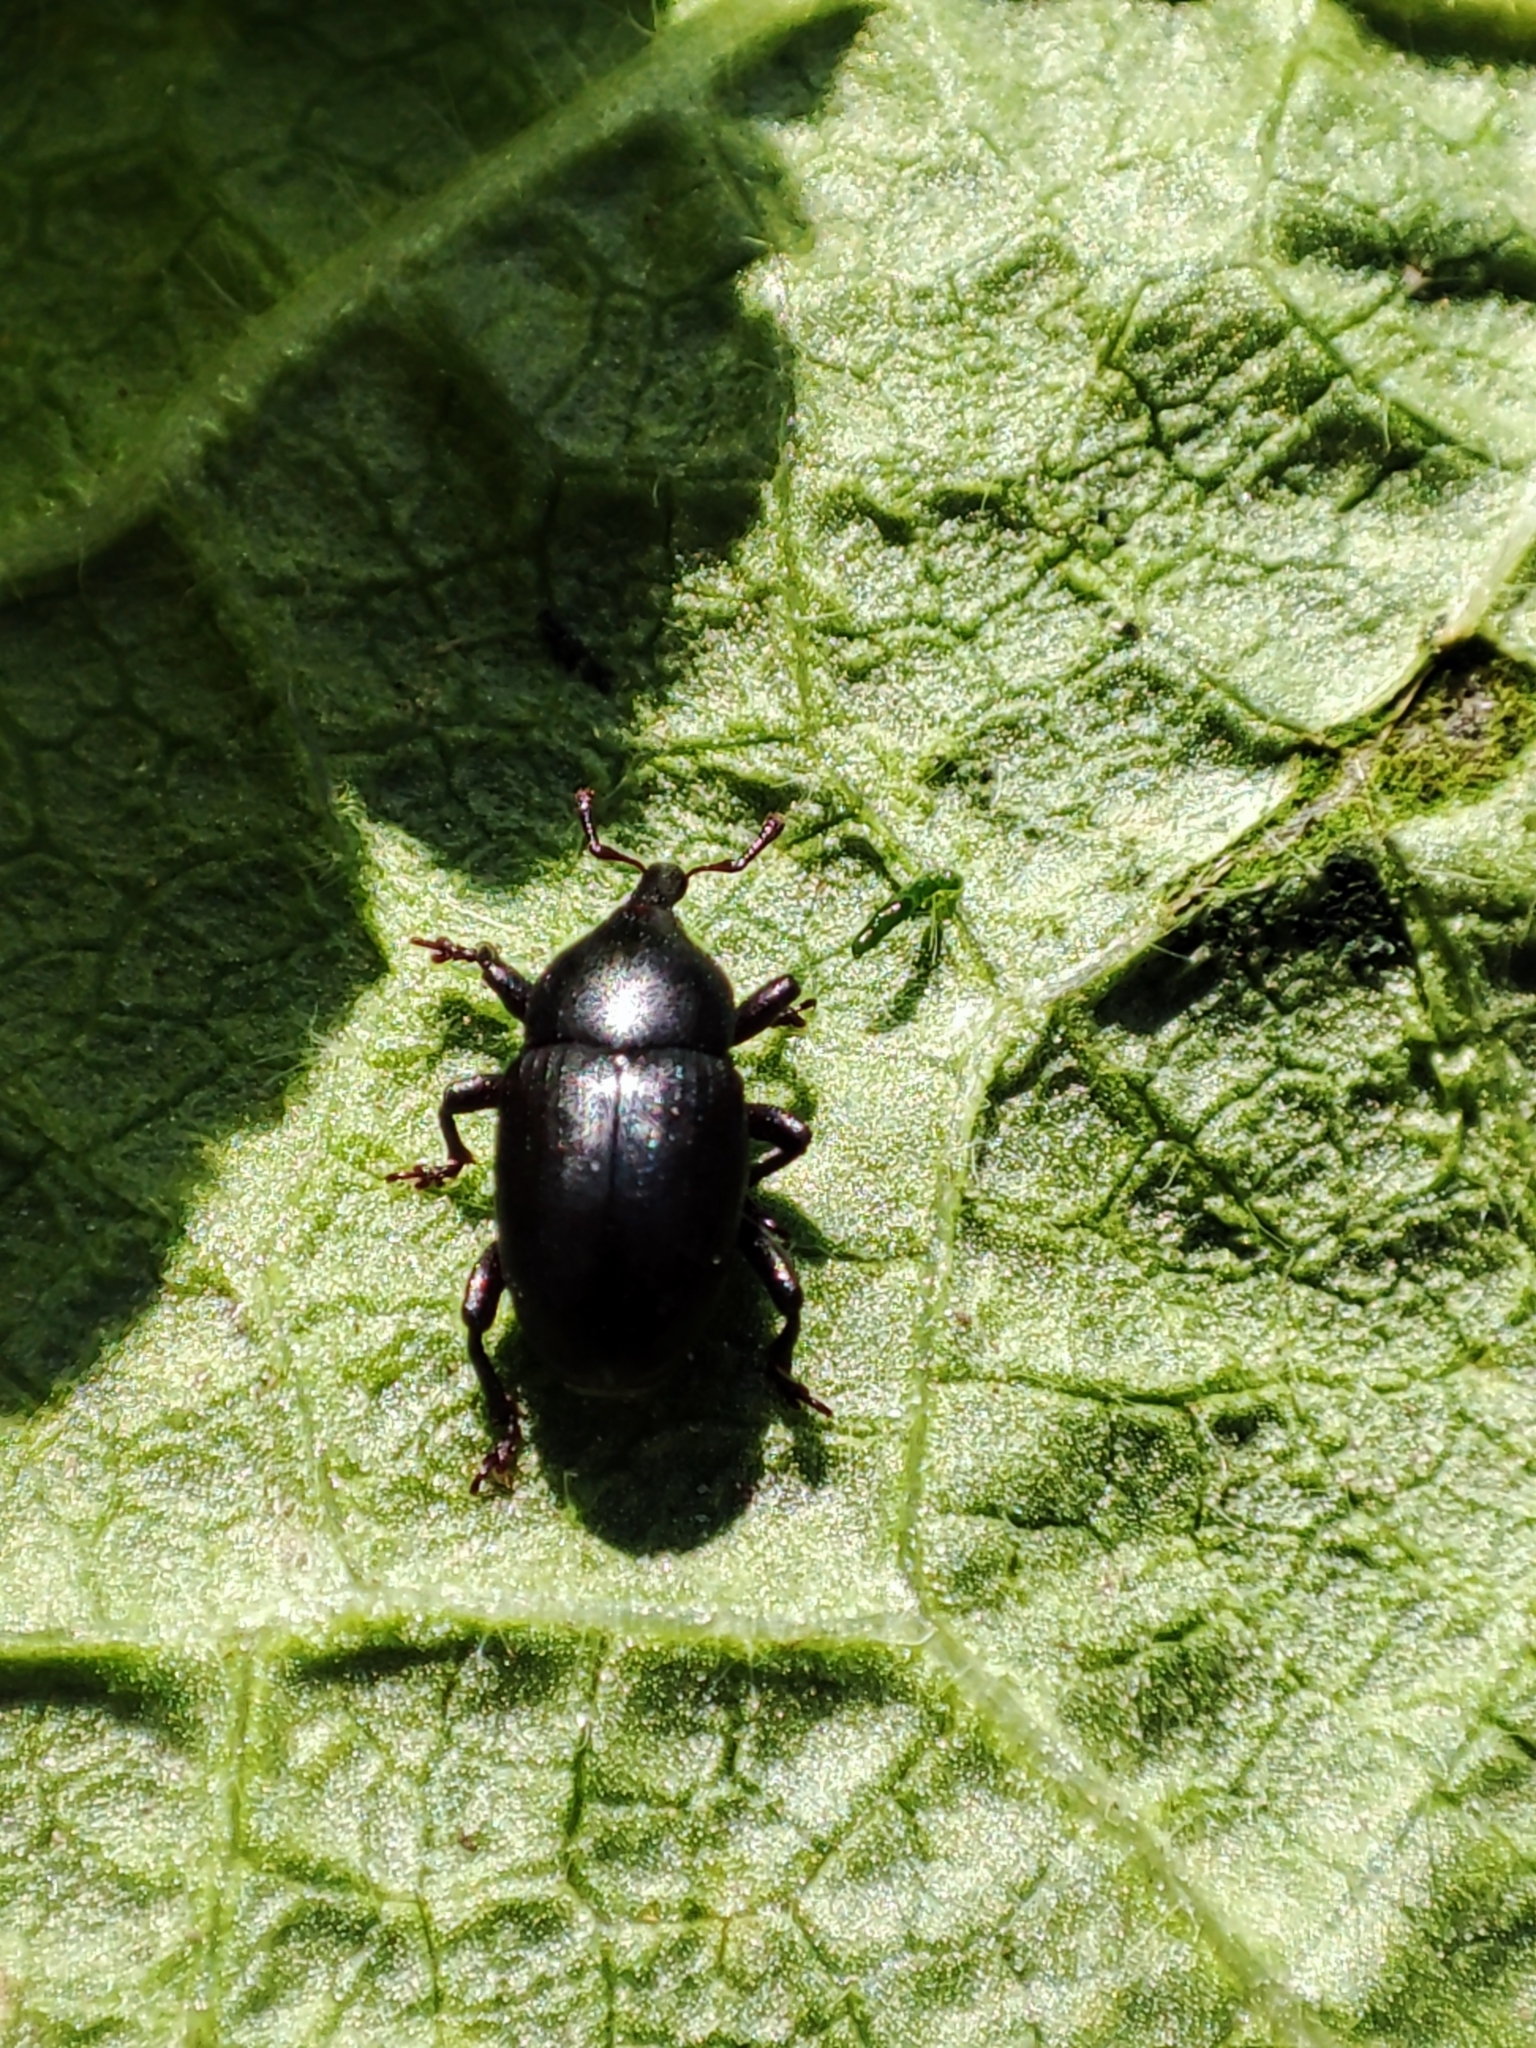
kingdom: Animalia
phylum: Arthropoda
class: Insecta
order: Coleoptera
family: Curculionidae
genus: Malvaevora
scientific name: Malvaevora timida
